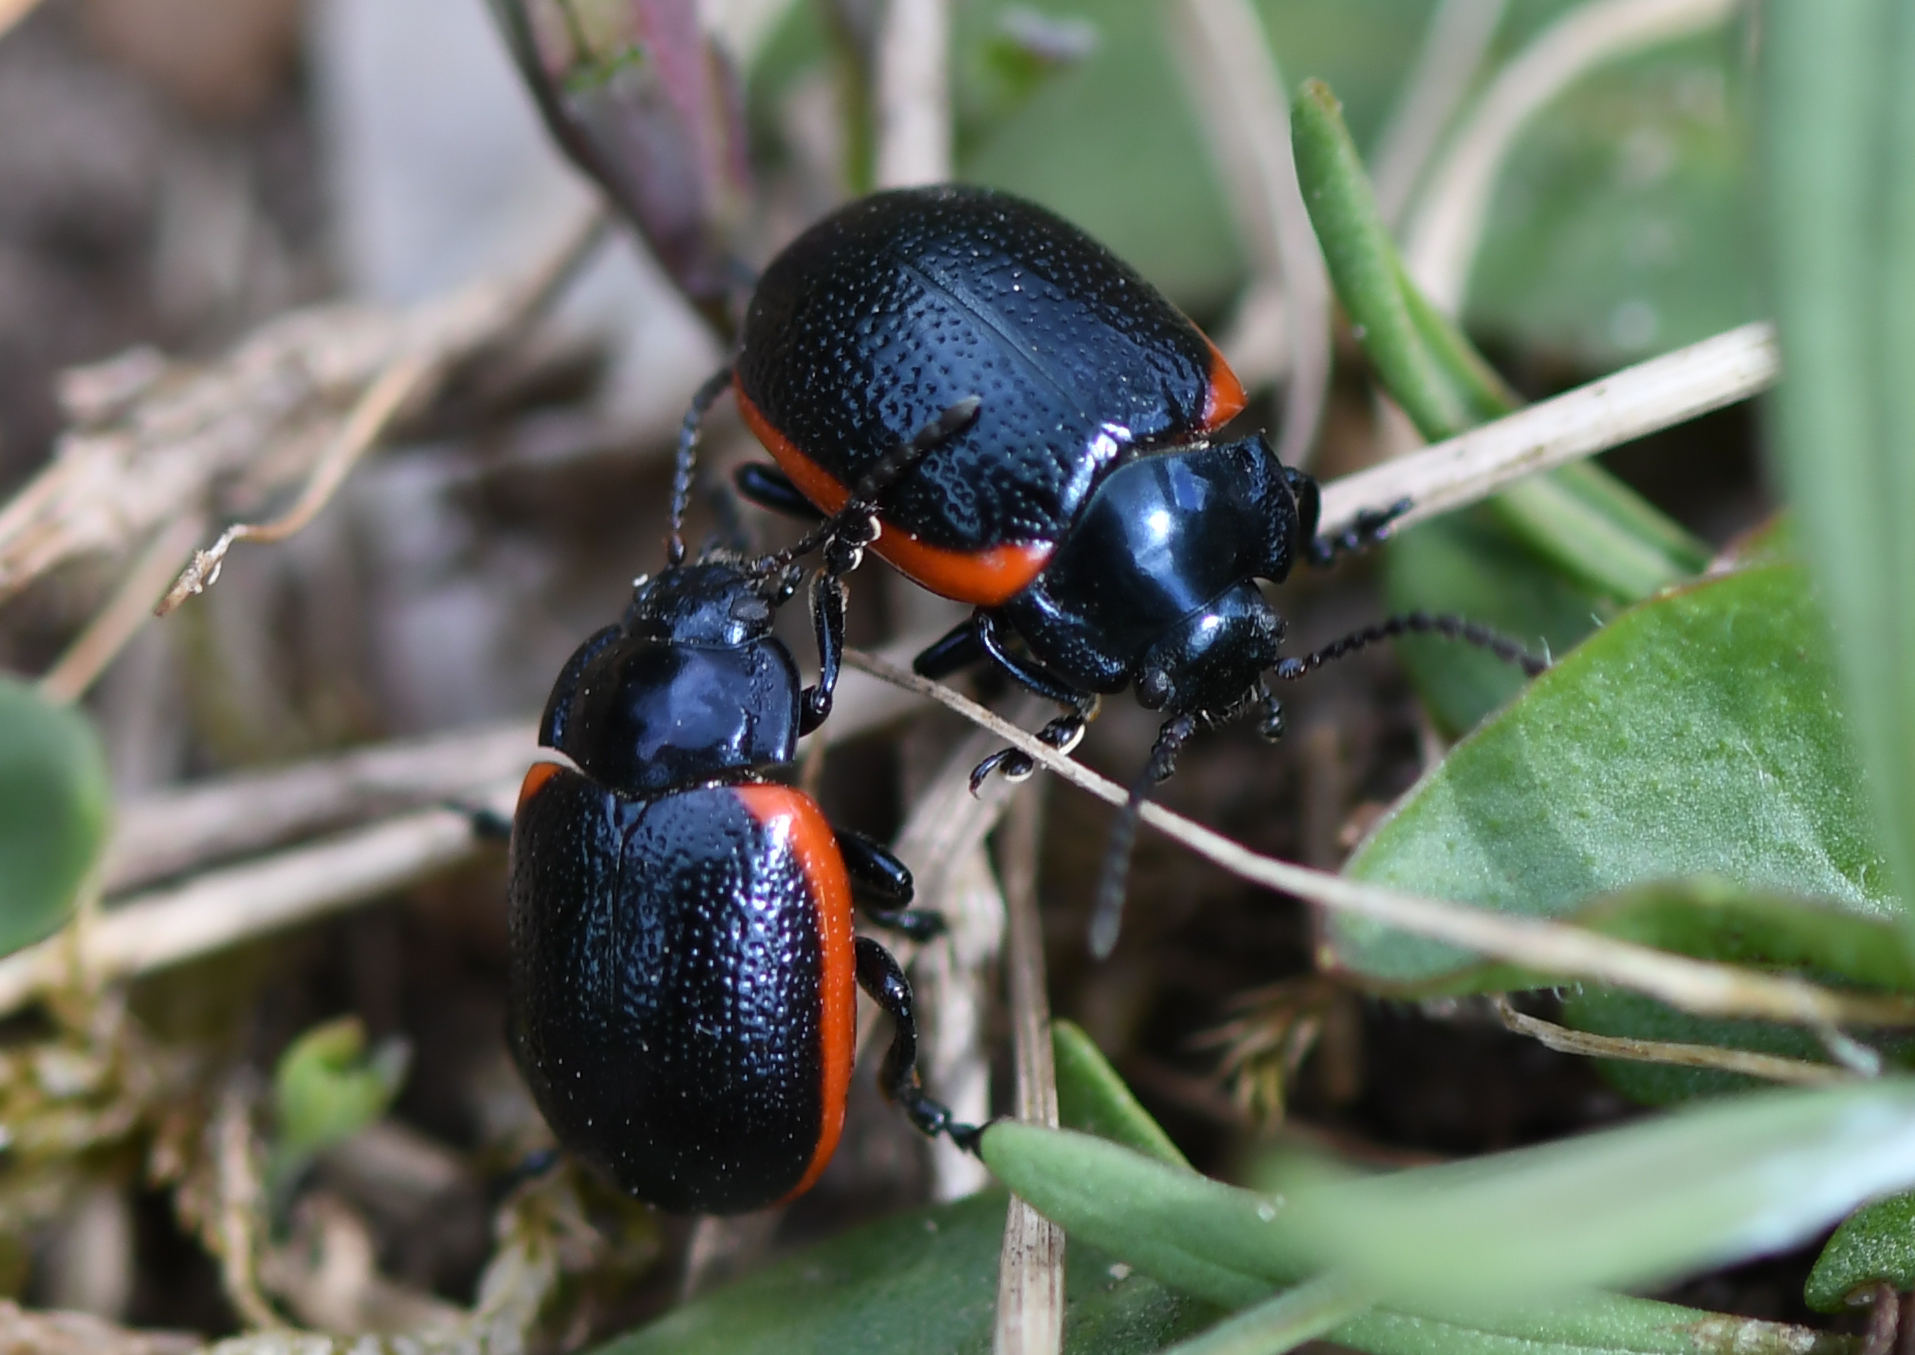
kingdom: Animalia
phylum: Arthropoda
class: Insecta
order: Coleoptera
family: Chrysomelidae
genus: Chrysolina
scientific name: Chrysolina sanguinolenta
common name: Toadflax leaf beetle
